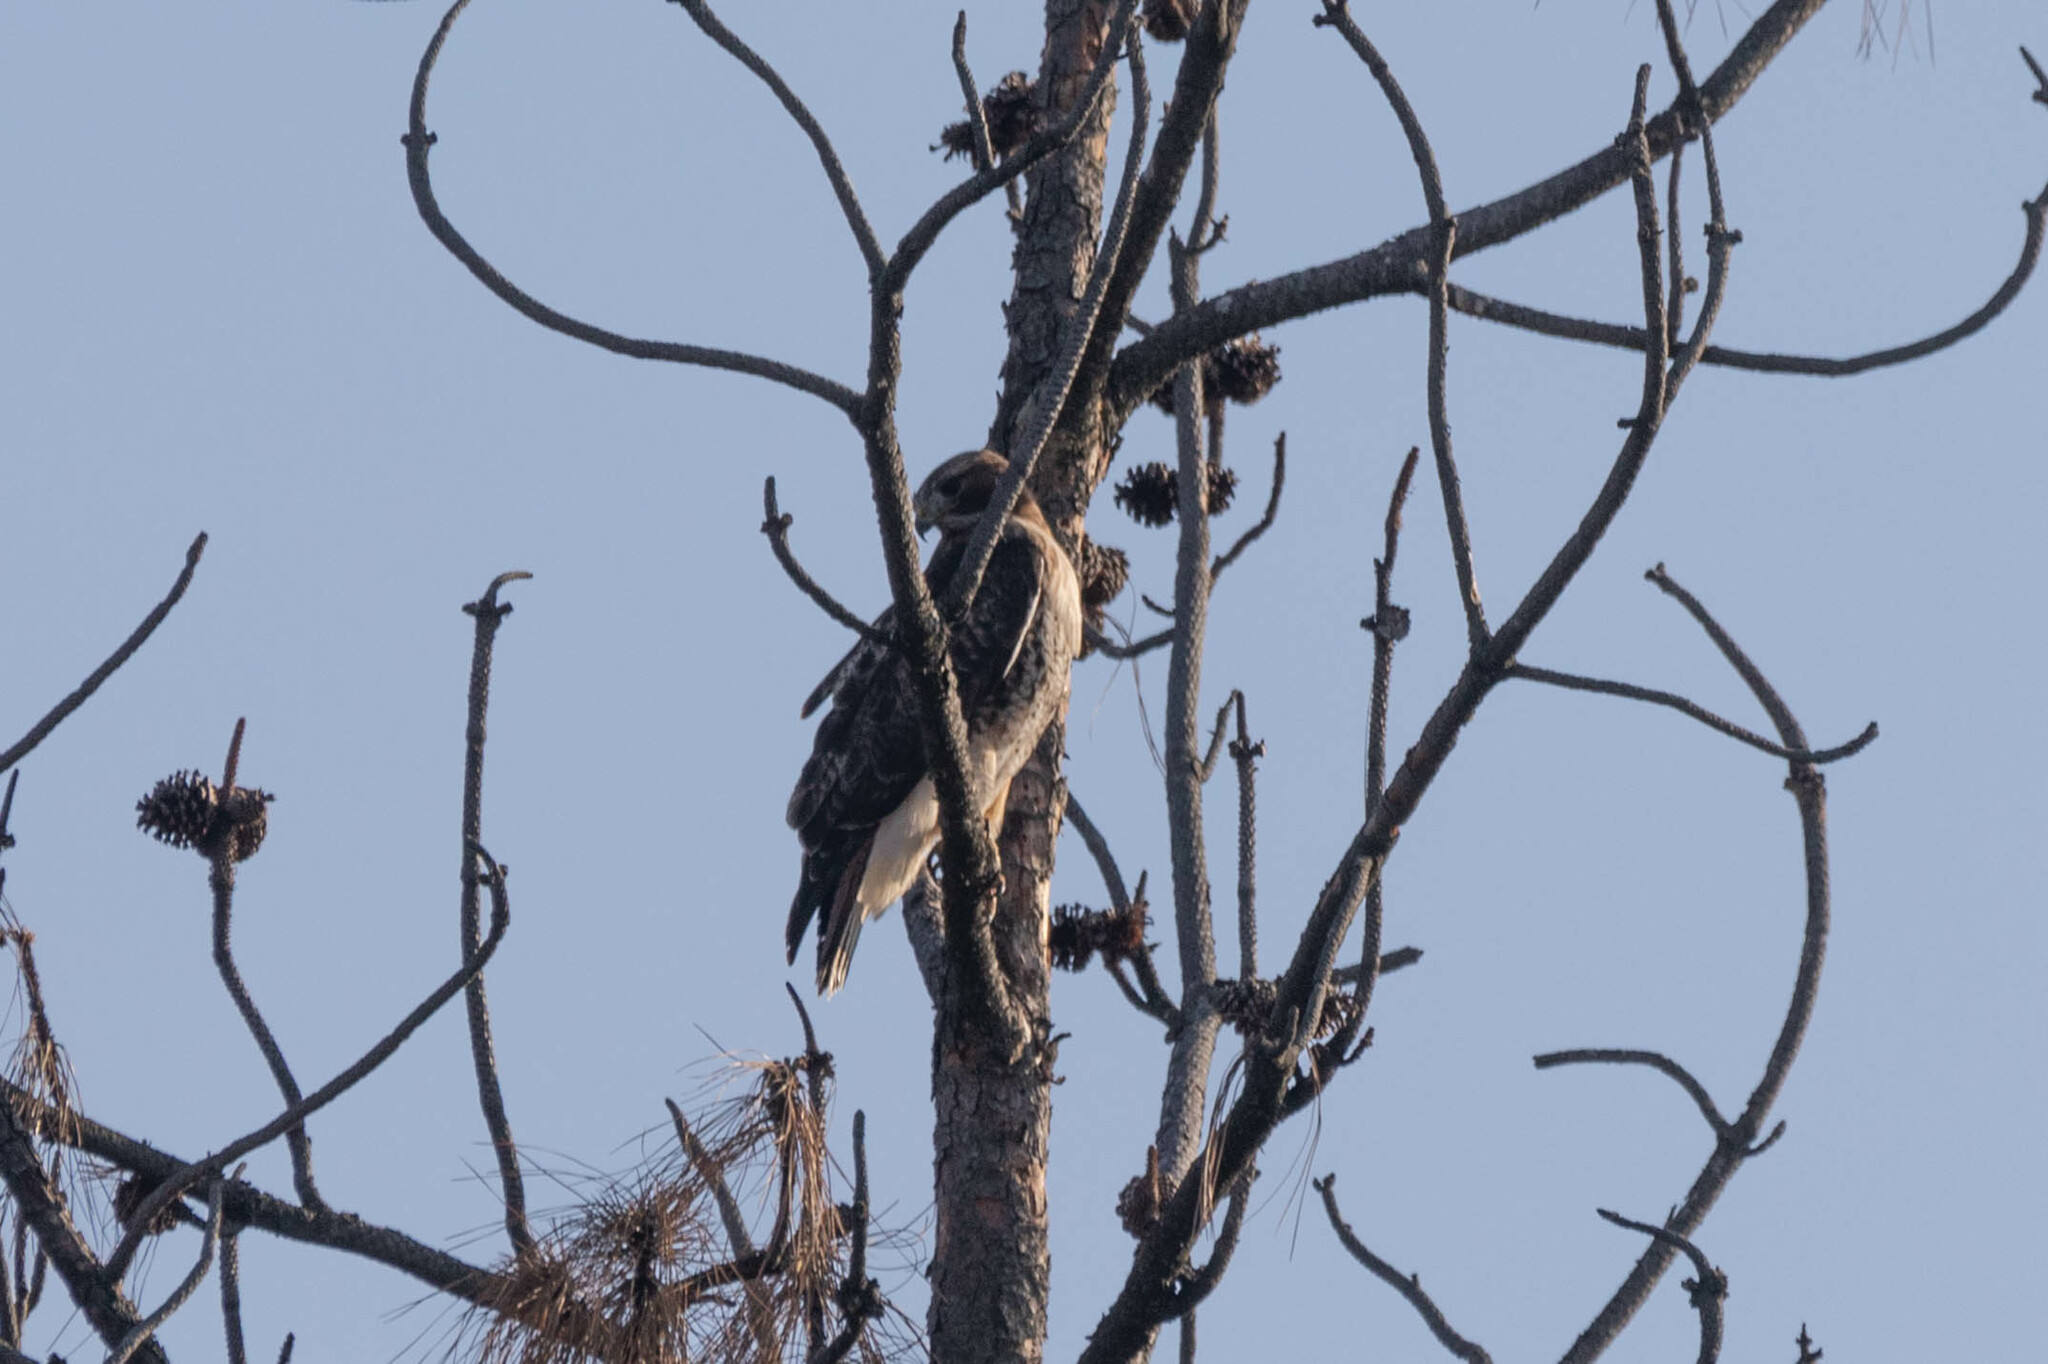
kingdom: Animalia
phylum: Chordata
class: Aves
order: Accipitriformes
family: Accipitridae
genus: Buteo
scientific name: Buteo jamaicensis
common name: Red-tailed hawk
